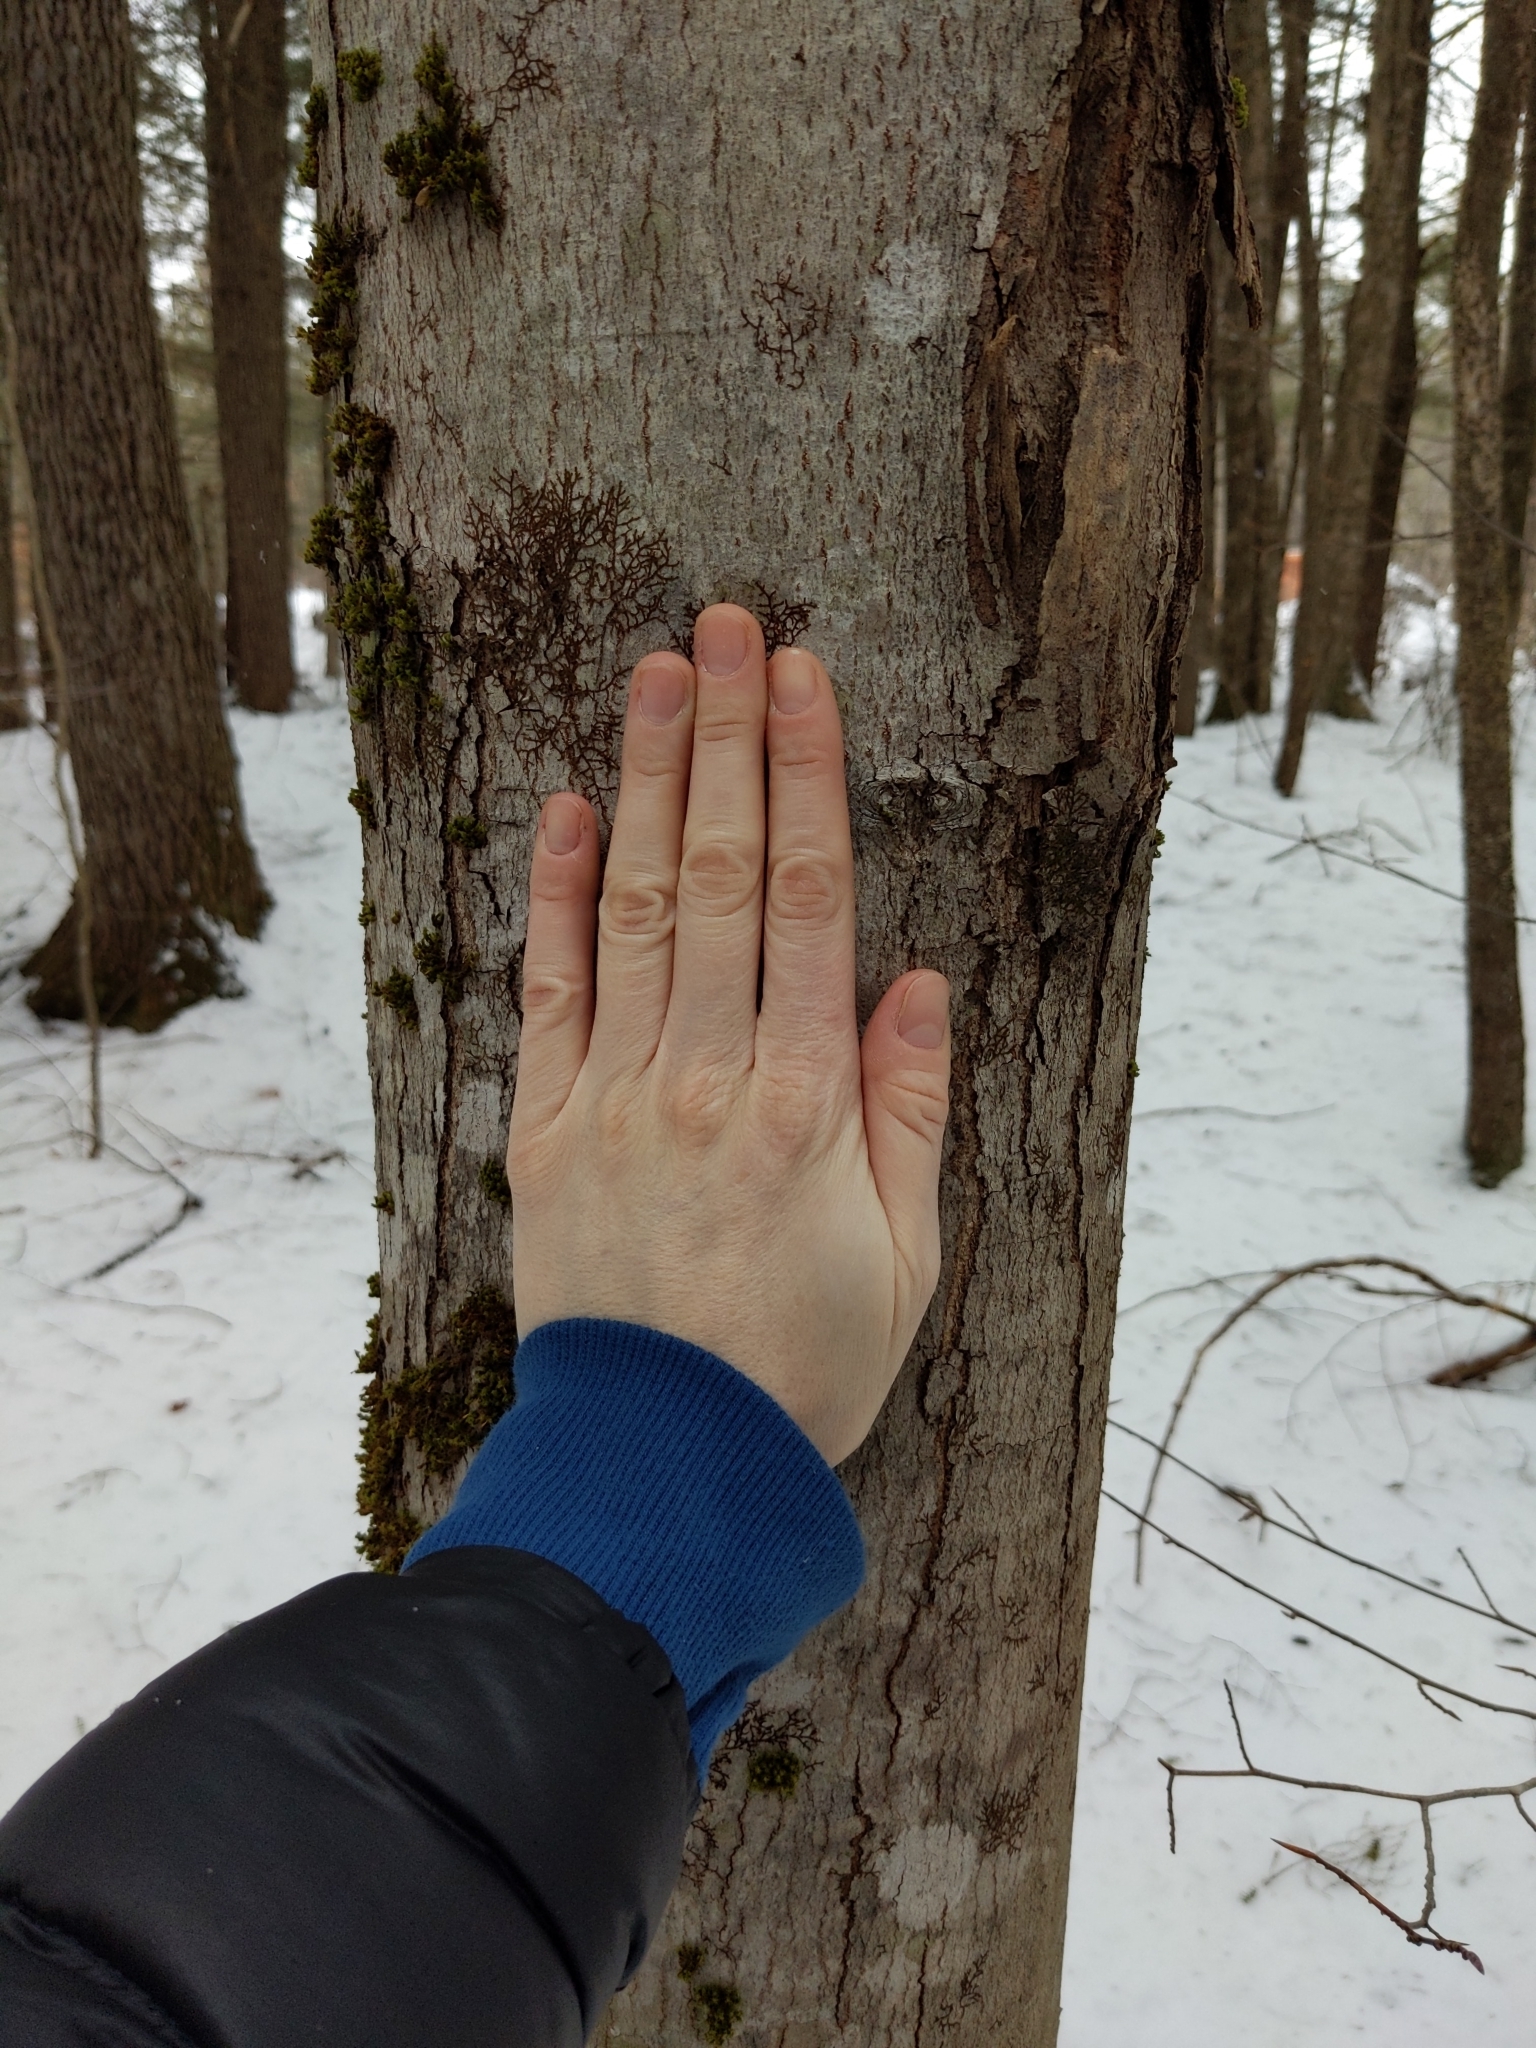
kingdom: Plantae
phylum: Tracheophyta
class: Magnoliopsida
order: Fagales
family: Fagaceae
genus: Fagus
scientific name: Fagus grandifolia
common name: American beech
